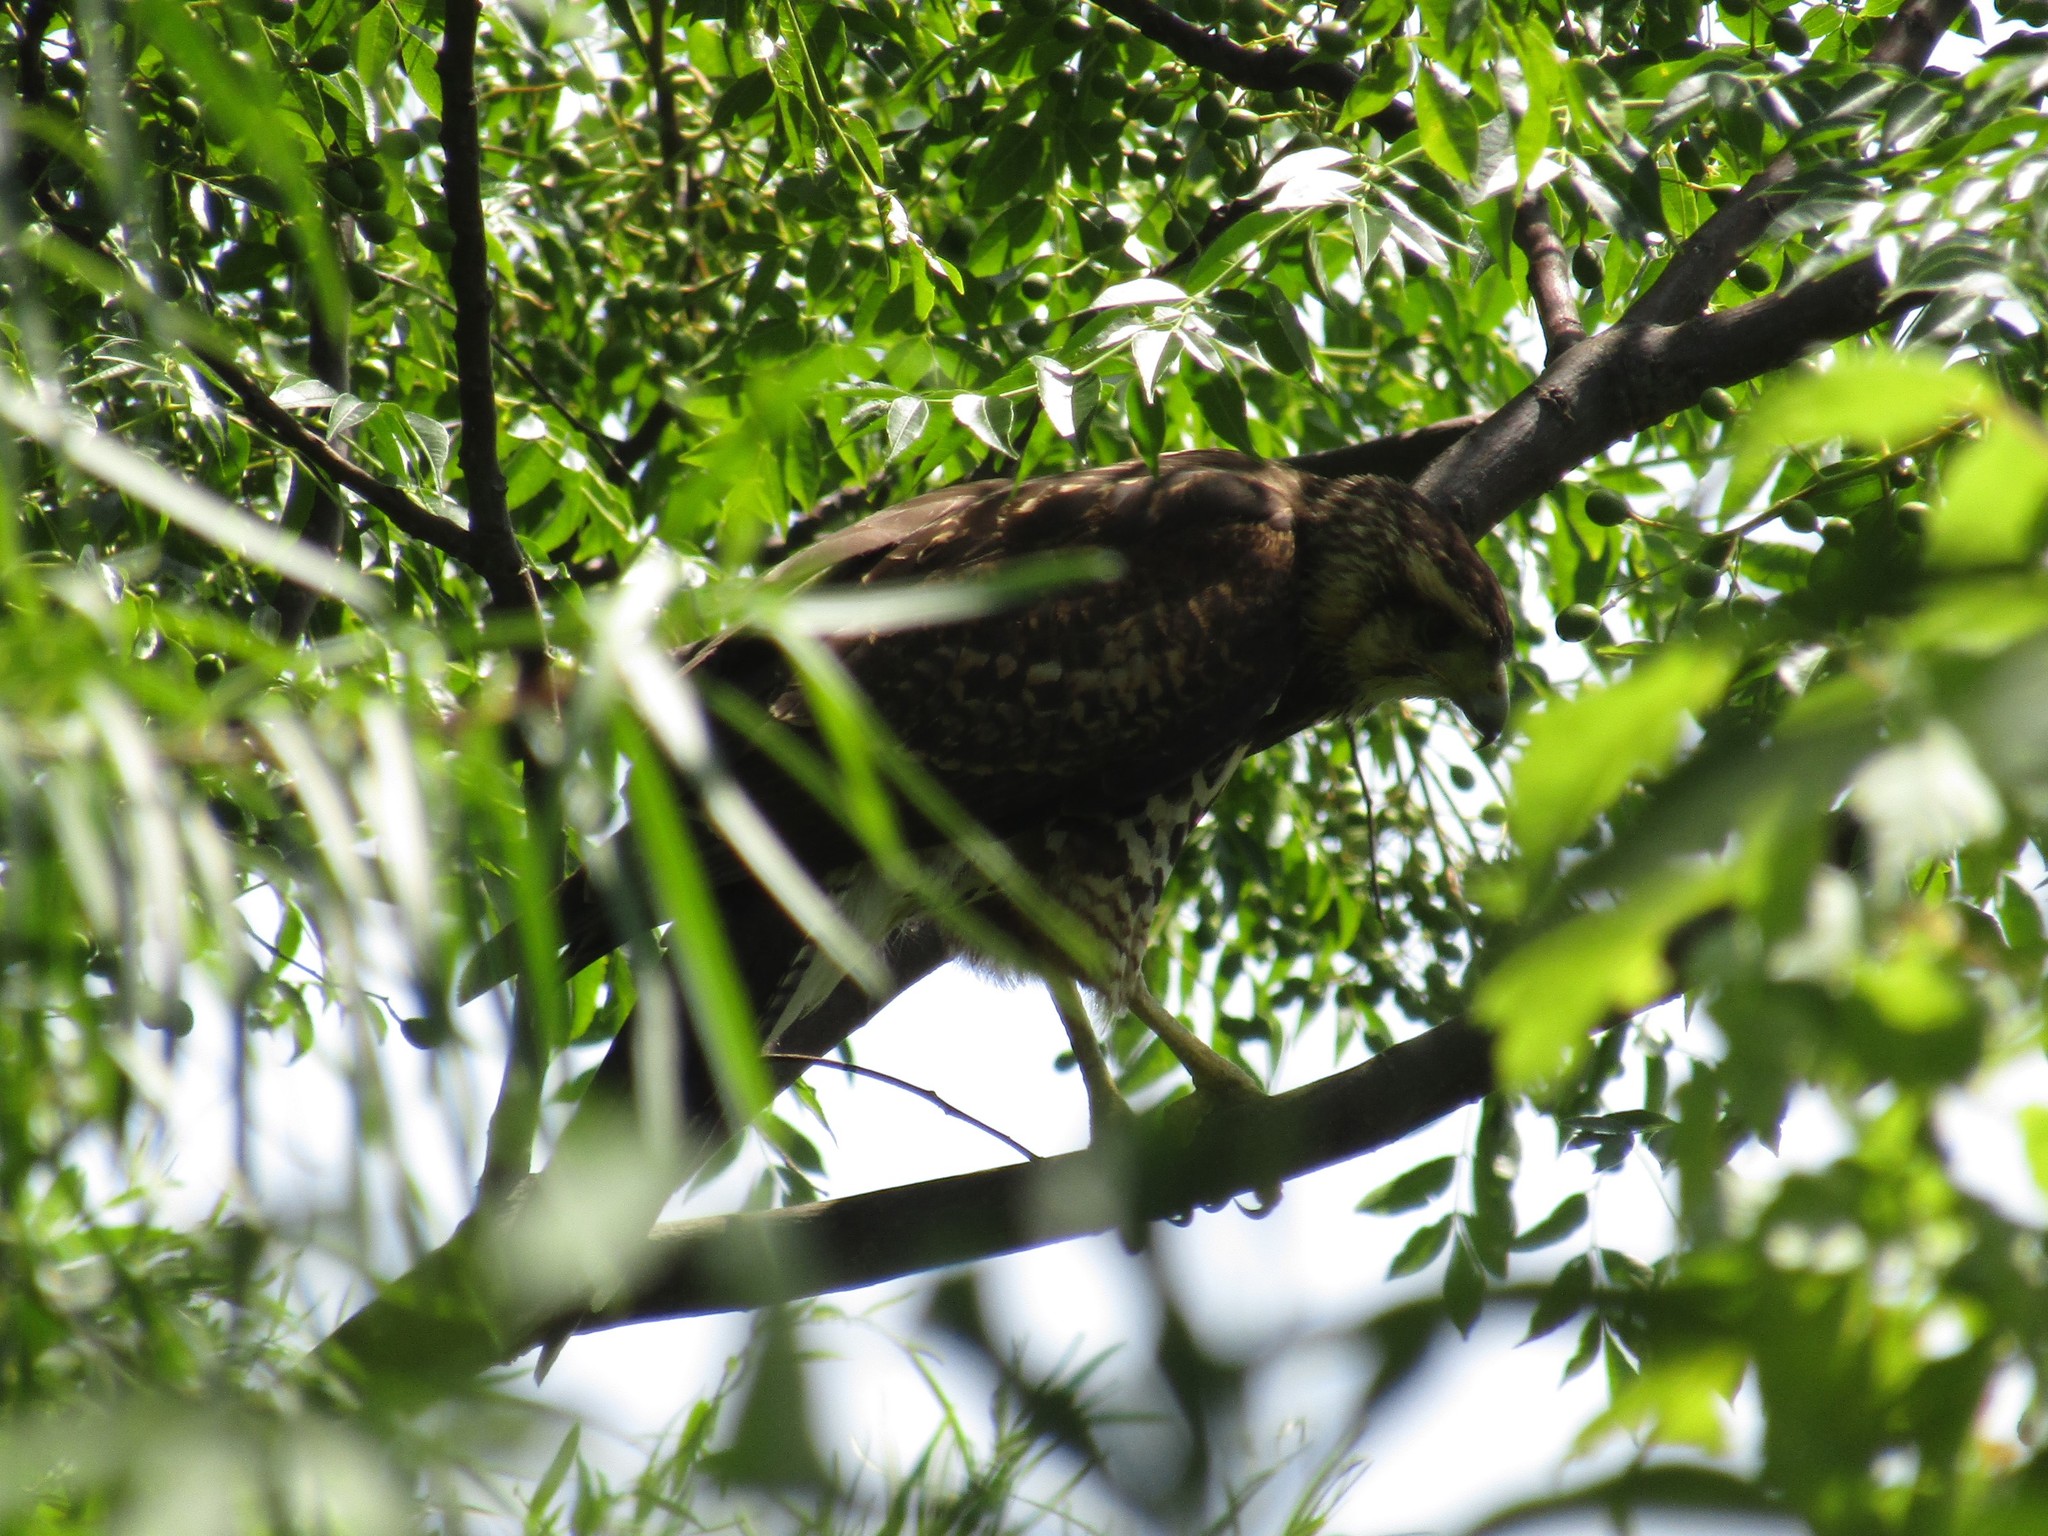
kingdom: Animalia
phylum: Chordata
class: Aves
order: Accipitriformes
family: Accipitridae
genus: Parabuteo
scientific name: Parabuteo unicinctus
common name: Harris's hawk
